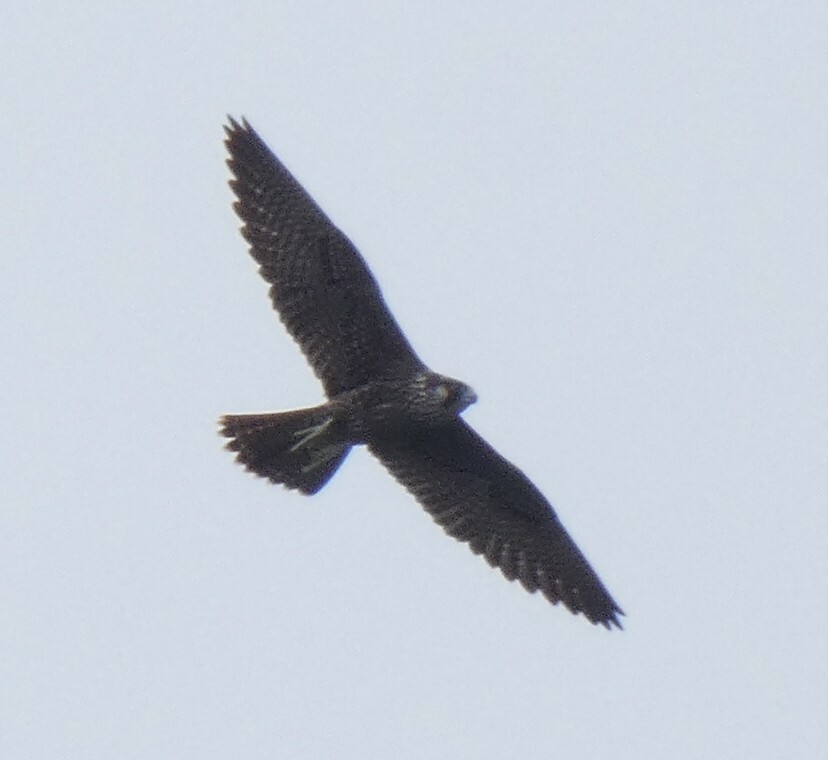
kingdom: Animalia
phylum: Chordata
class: Aves
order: Falconiformes
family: Falconidae
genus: Falco
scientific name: Falco peregrinus
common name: Peregrine falcon
